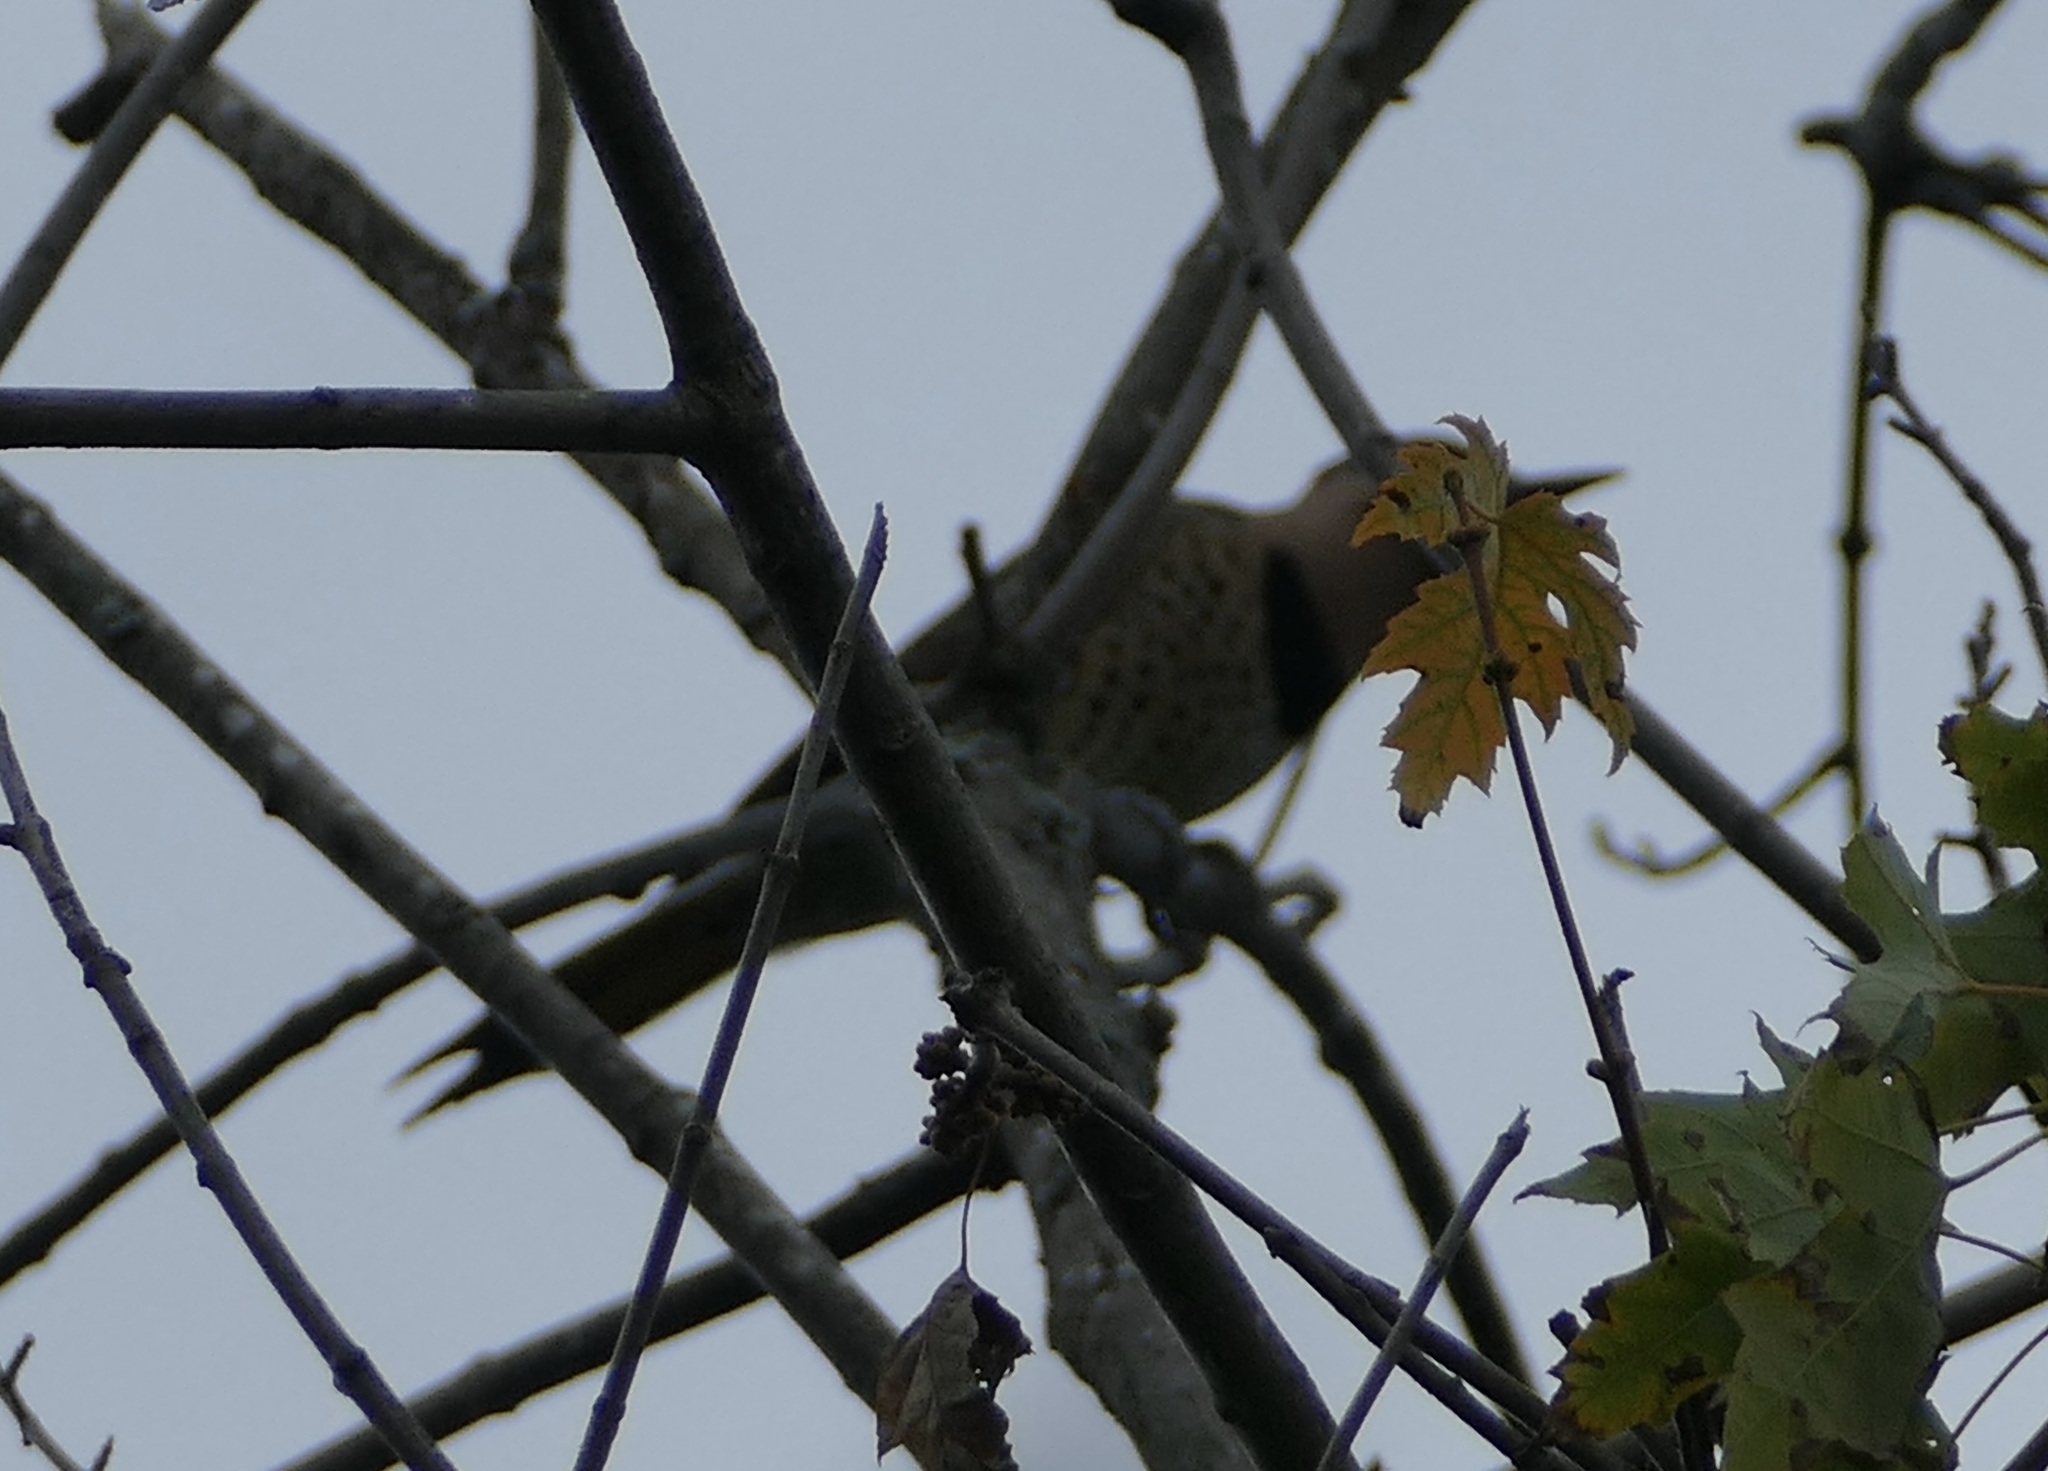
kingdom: Animalia
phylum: Chordata
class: Aves
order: Piciformes
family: Picidae
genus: Colaptes
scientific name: Colaptes auratus
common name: Northern flicker
